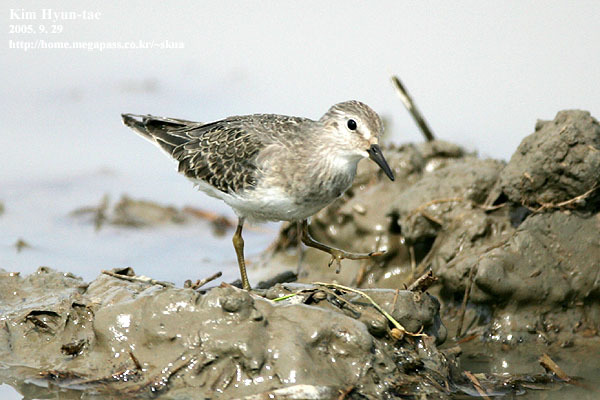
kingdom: Animalia
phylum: Chordata
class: Aves
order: Charadriiformes
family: Scolopacidae
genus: Calidris
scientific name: Calidris temminckii
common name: Temminck's stint
